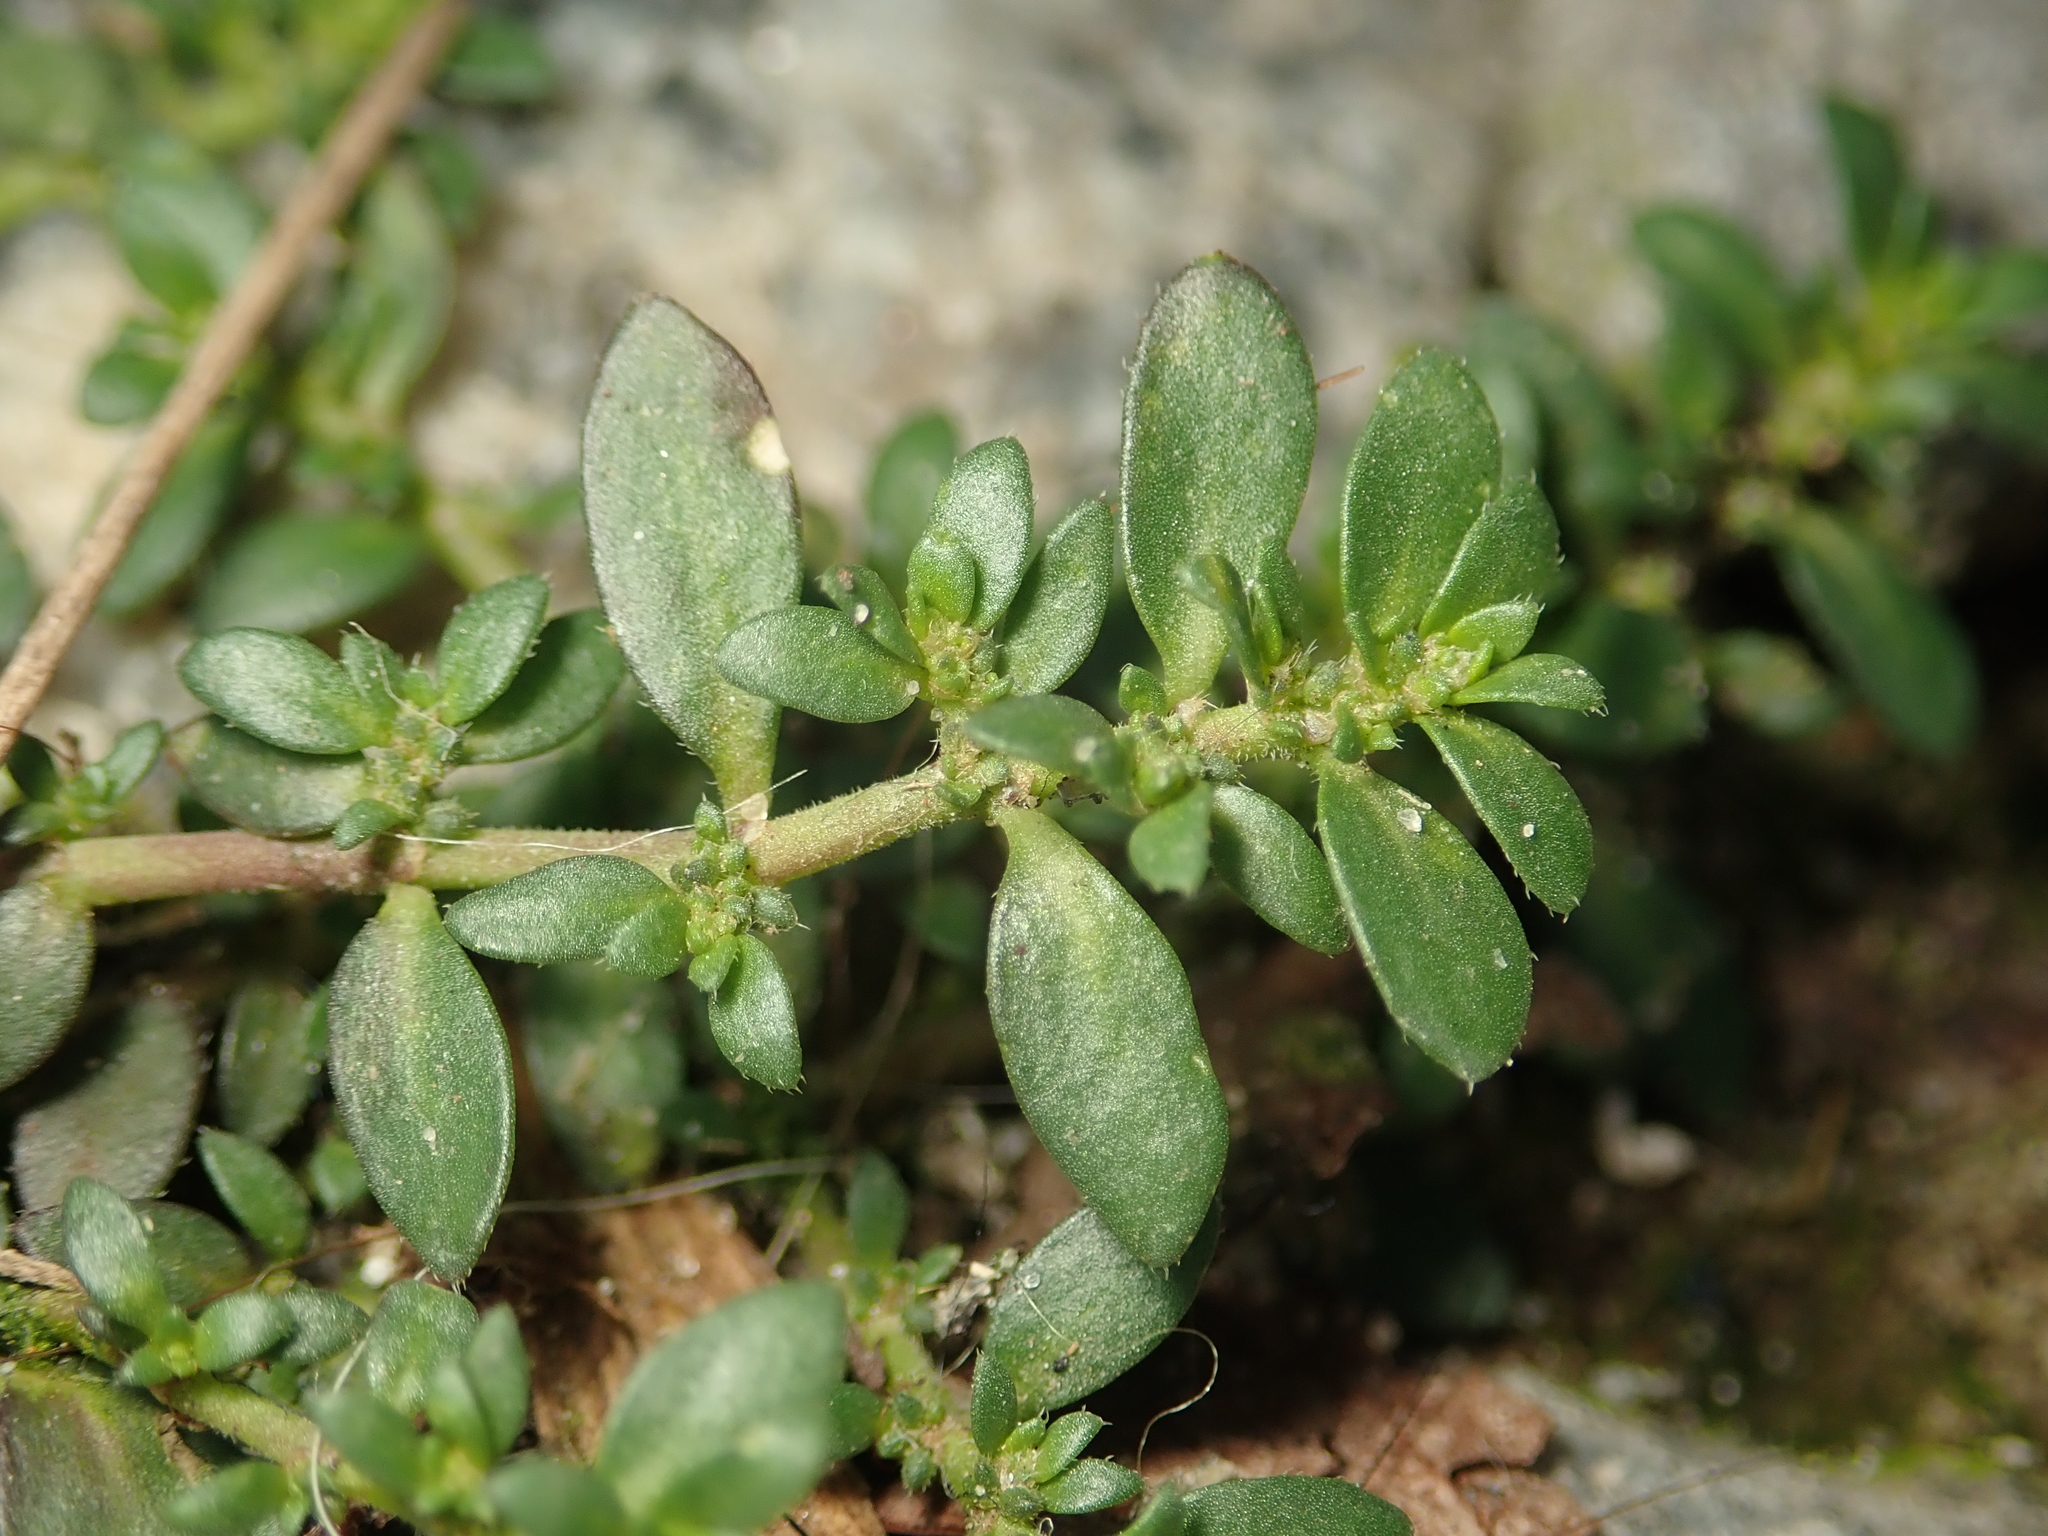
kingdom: Plantae
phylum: Tracheophyta
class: Magnoliopsida
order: Caryophyllales
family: Caryophyllaceae
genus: Herniaria
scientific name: Herniaria glabra
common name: Smooth rupturewort
